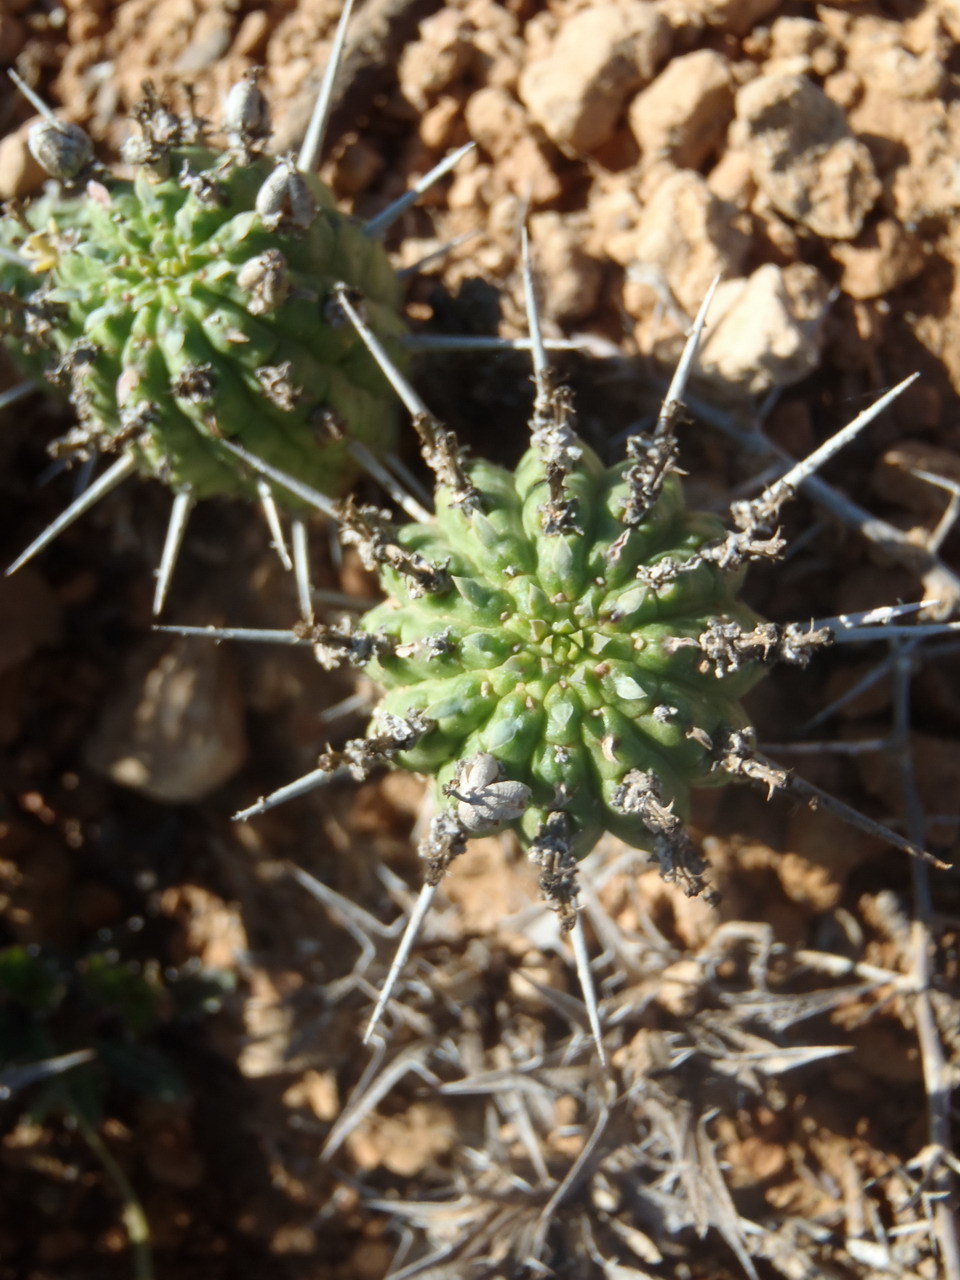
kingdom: Plantae
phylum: Tracheophyta
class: Magnoliopsida
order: Malpighiales
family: Euphorbiaceae
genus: Euphorbia
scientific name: Euphorbia mammillaris
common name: Corkscrew
